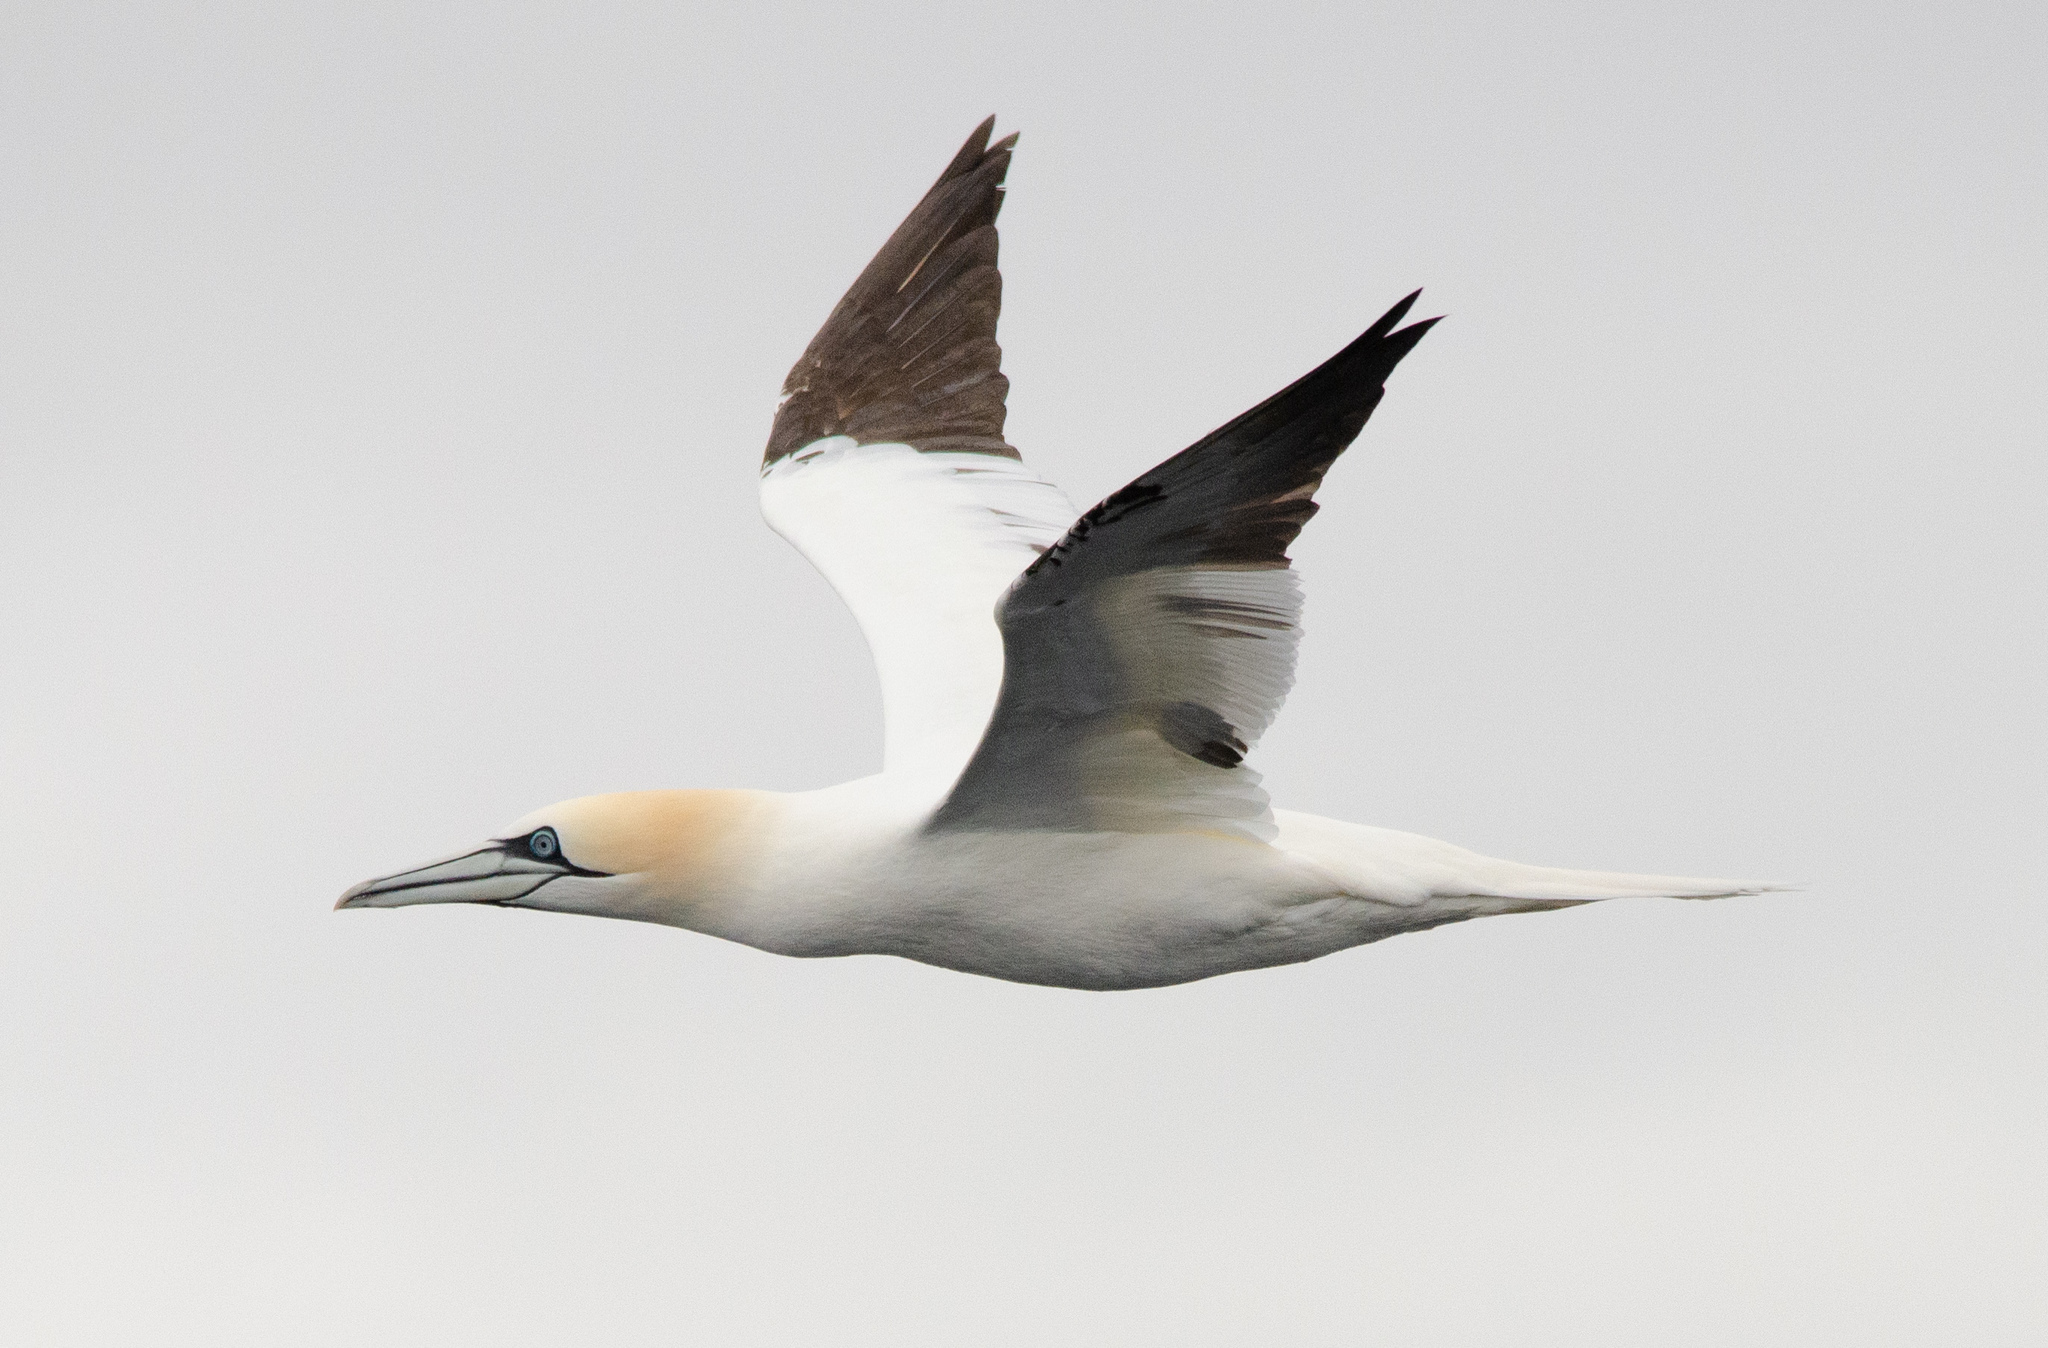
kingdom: Animalia
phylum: Chordata
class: Aves
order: Suliformes
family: Sulidae
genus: Morus
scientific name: Morus bassanus
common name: Northern gannet
